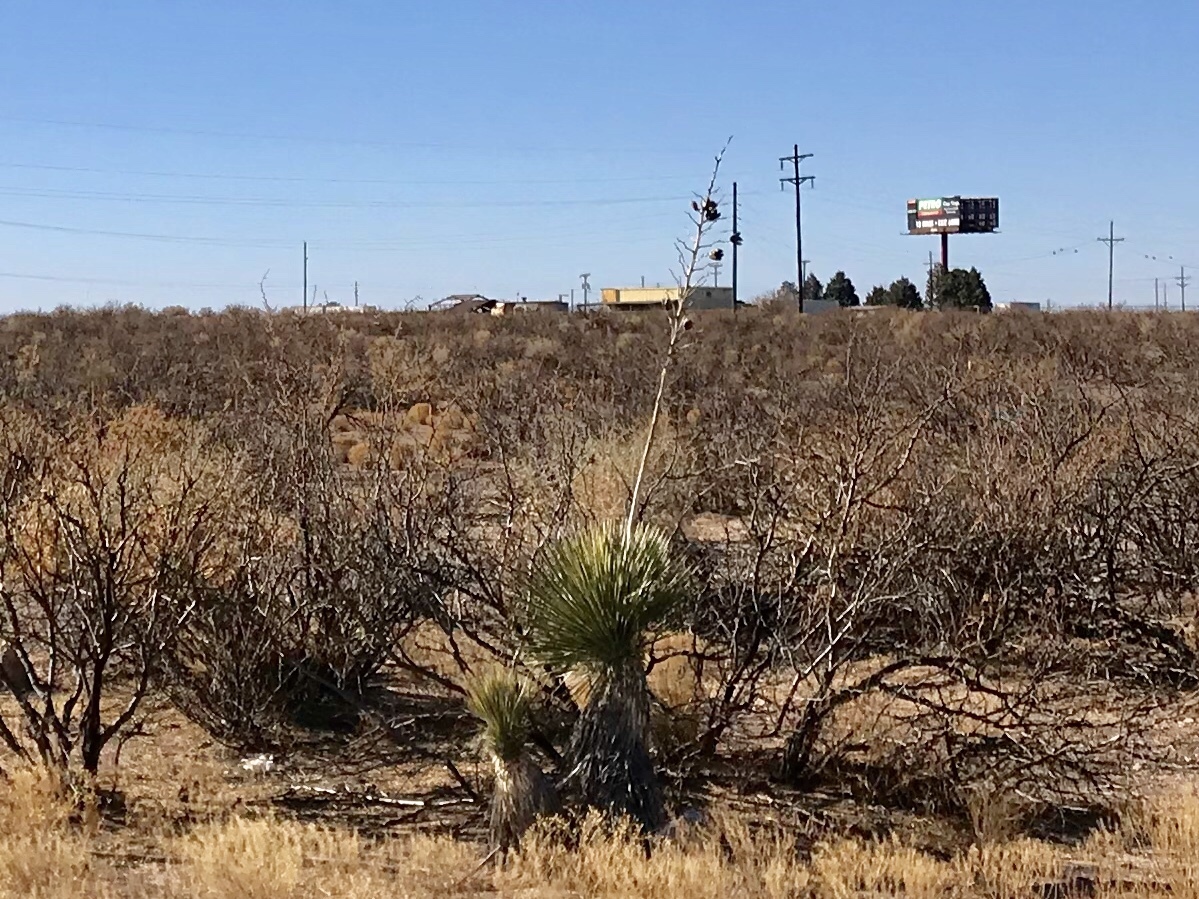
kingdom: Plantae
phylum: Tracheophyta
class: Liliopsida
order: Asparagales
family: Asparagaceae
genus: Yucca
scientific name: Yucca elata
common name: Palmella
